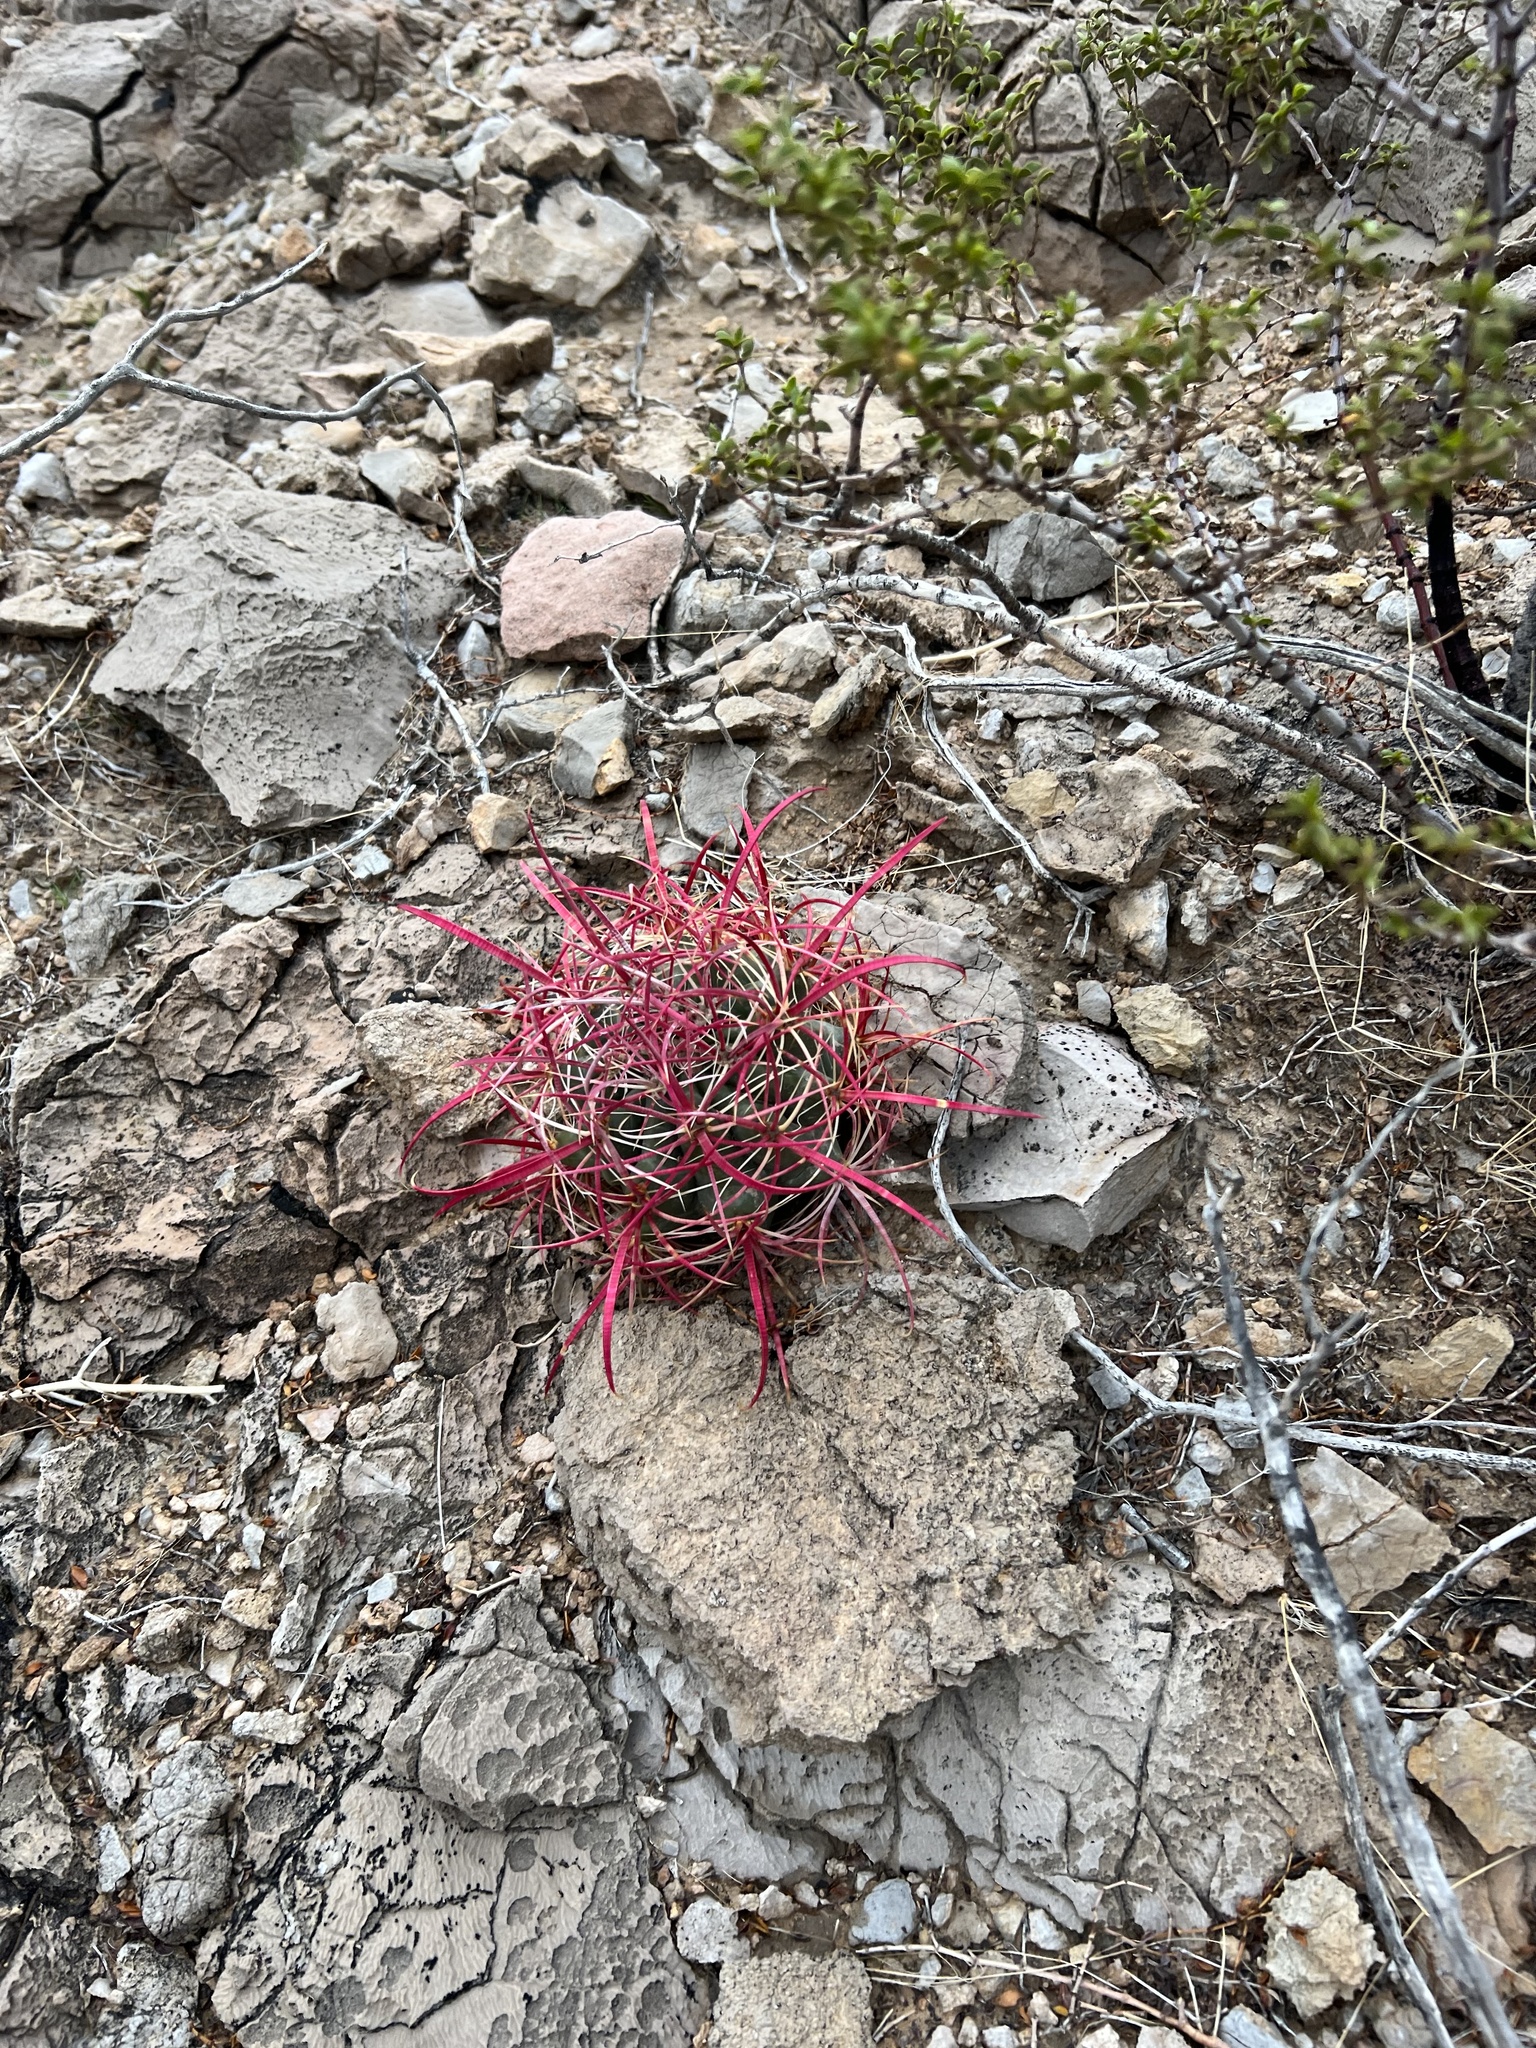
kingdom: Plantae
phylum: Tracheophyta
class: Magnoliopsida
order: Caryophyllales
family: Cactaceae
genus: Ferocactus
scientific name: Ferocactus cylindraceus
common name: California barrel cactus
